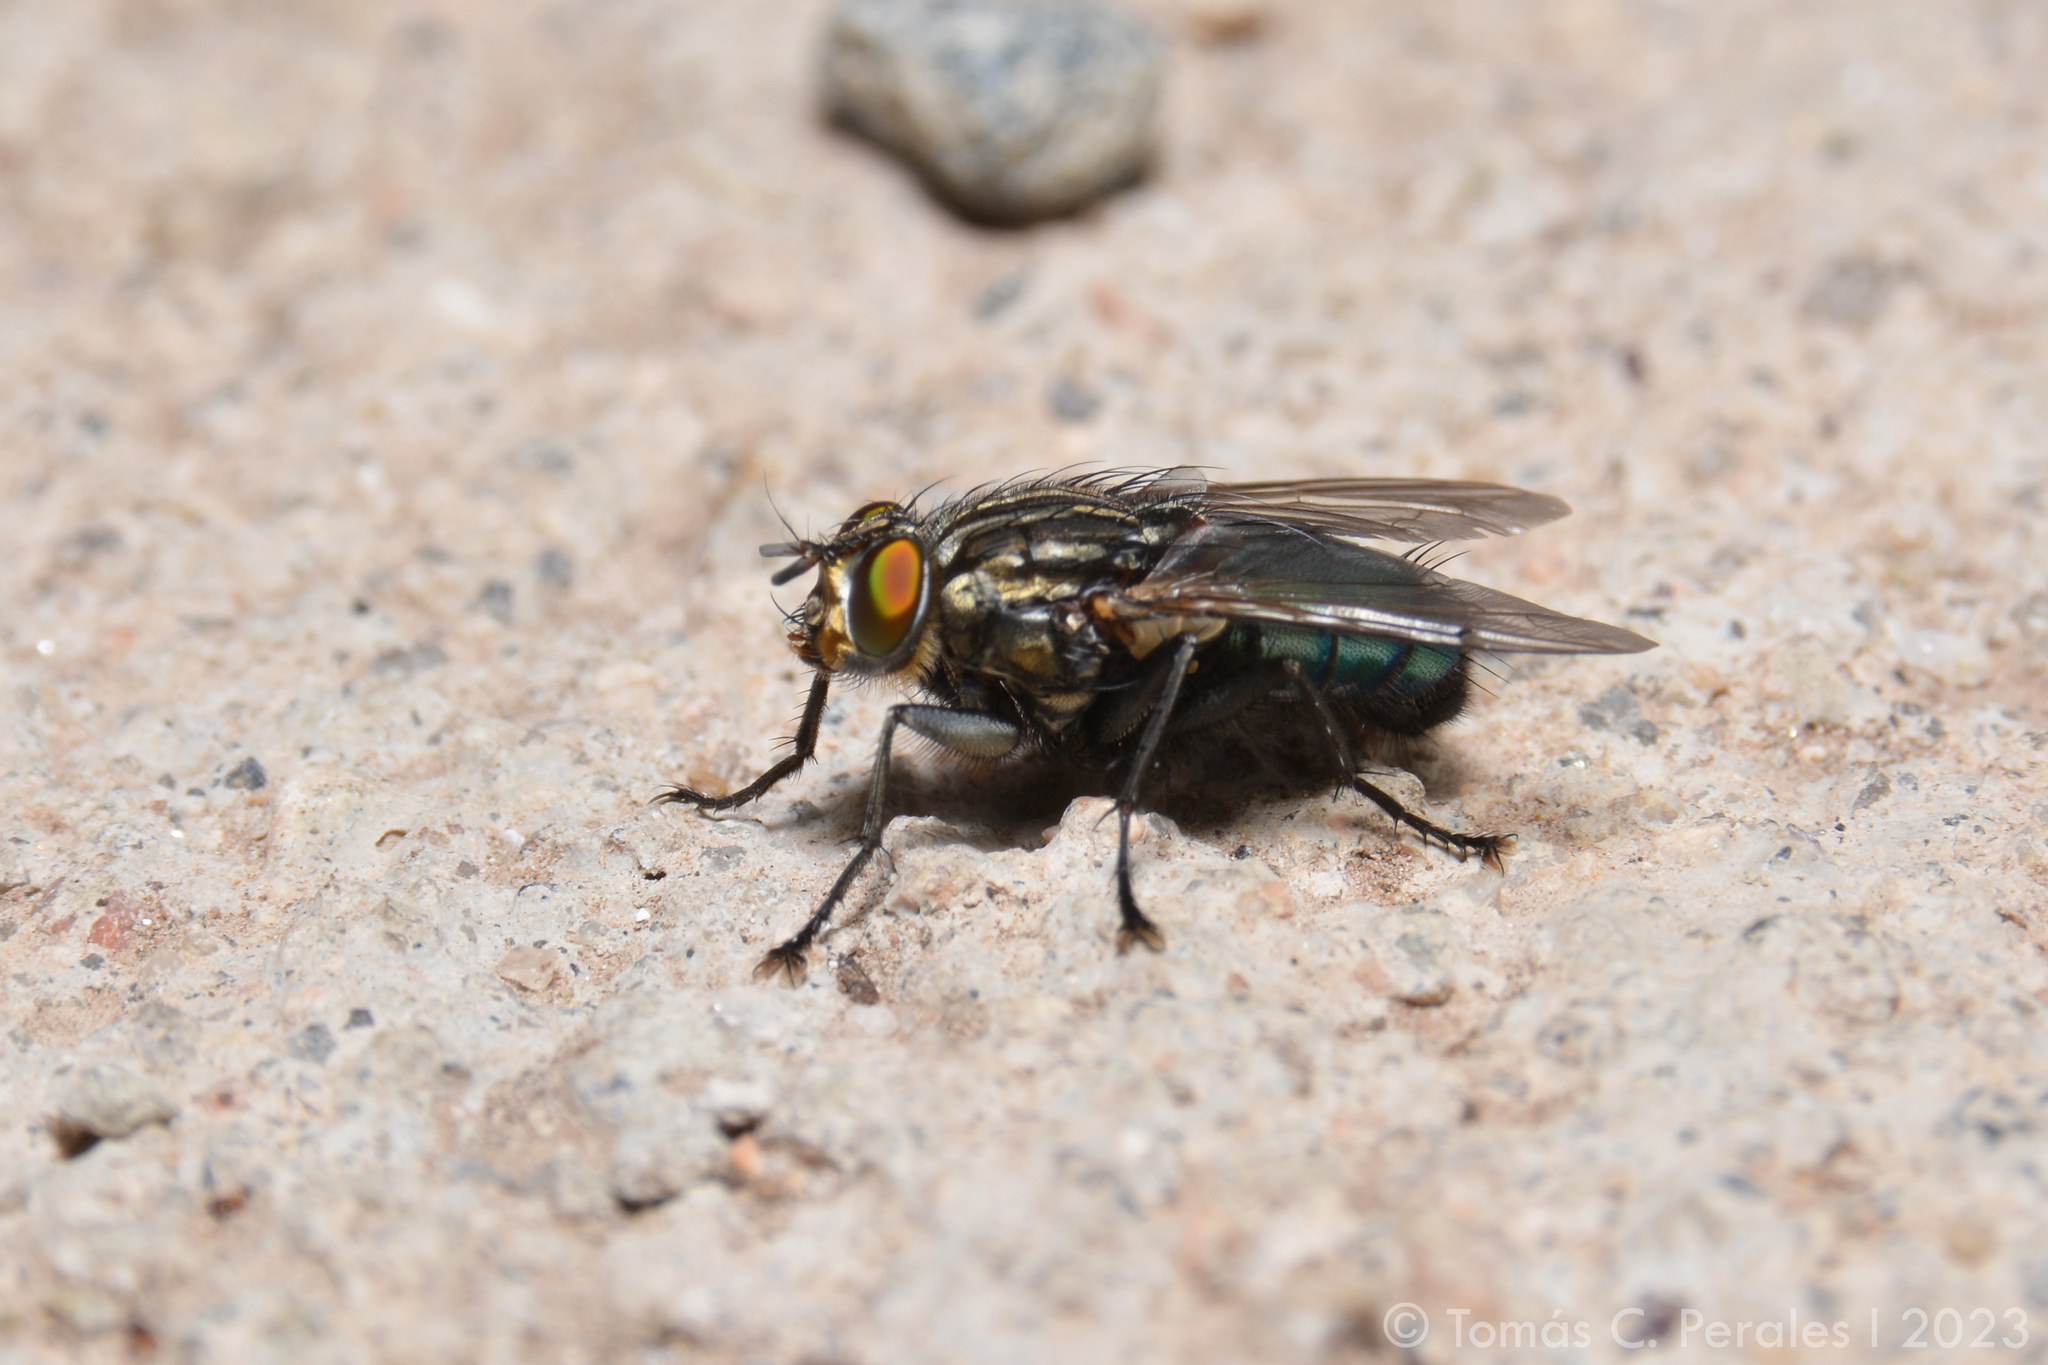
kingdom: Animalia
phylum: Arthropoda
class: Insecta
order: Diptera
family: Calliphoridae
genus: Sarconesia
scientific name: Sarconesia chlorogaster
